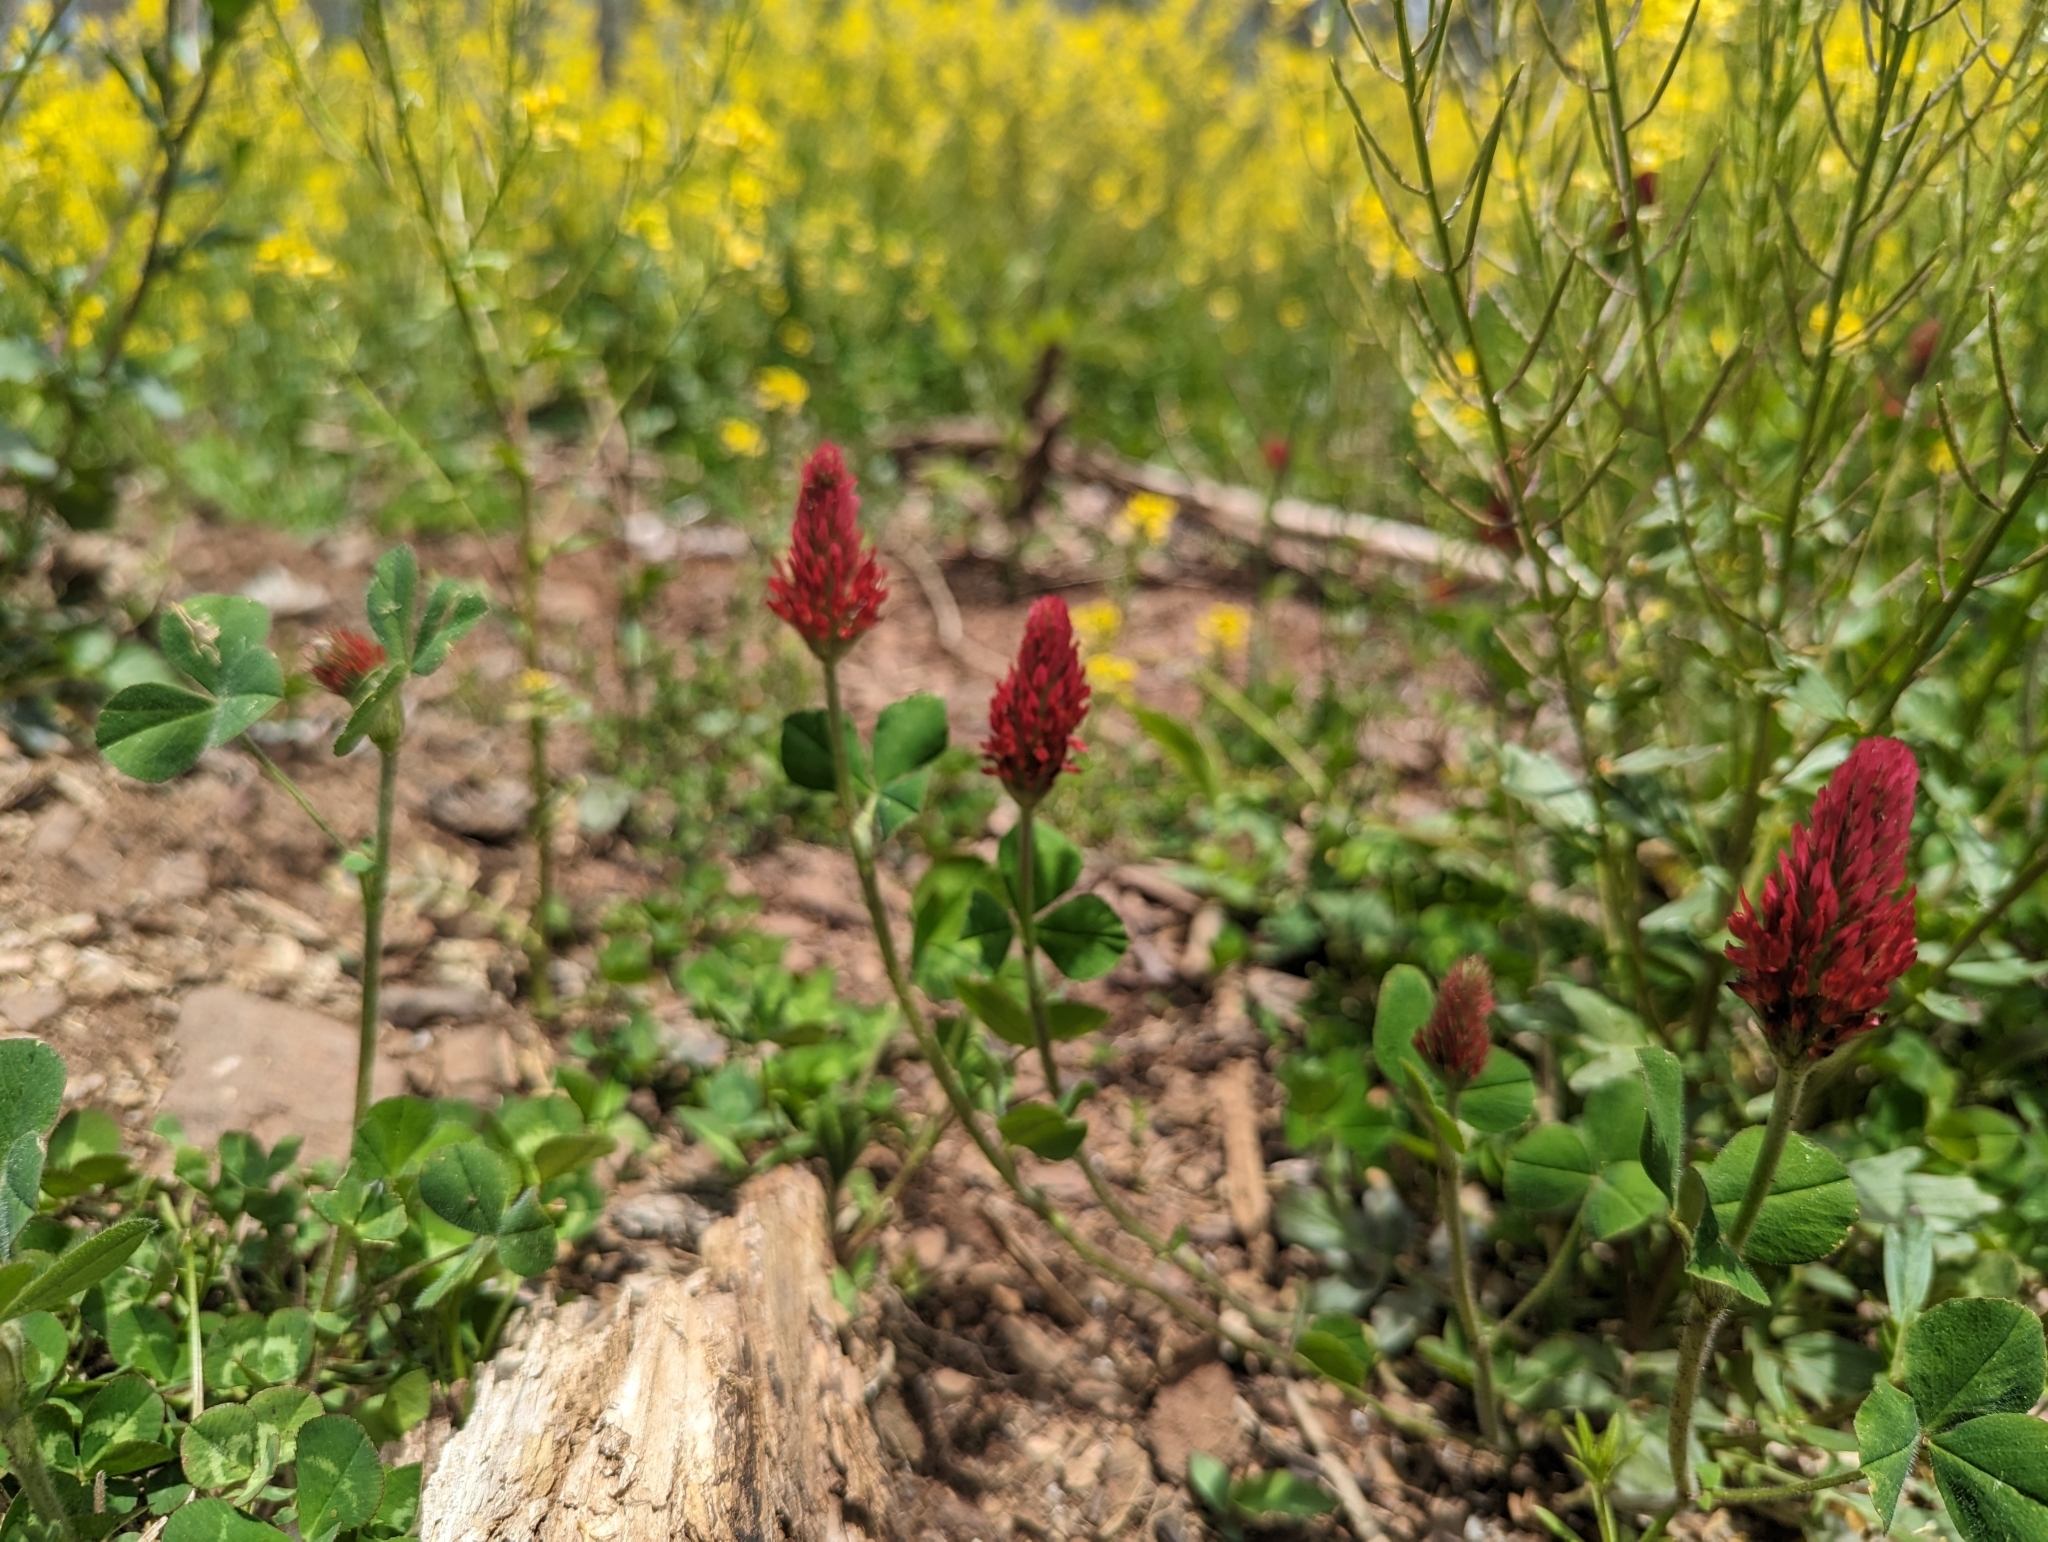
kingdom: Plantae
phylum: Tracheophyta
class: Magnoliopsida
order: Fabales
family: Fabaceae
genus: Trifolium
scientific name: Trifolium incarnatum
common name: Crimson clover
